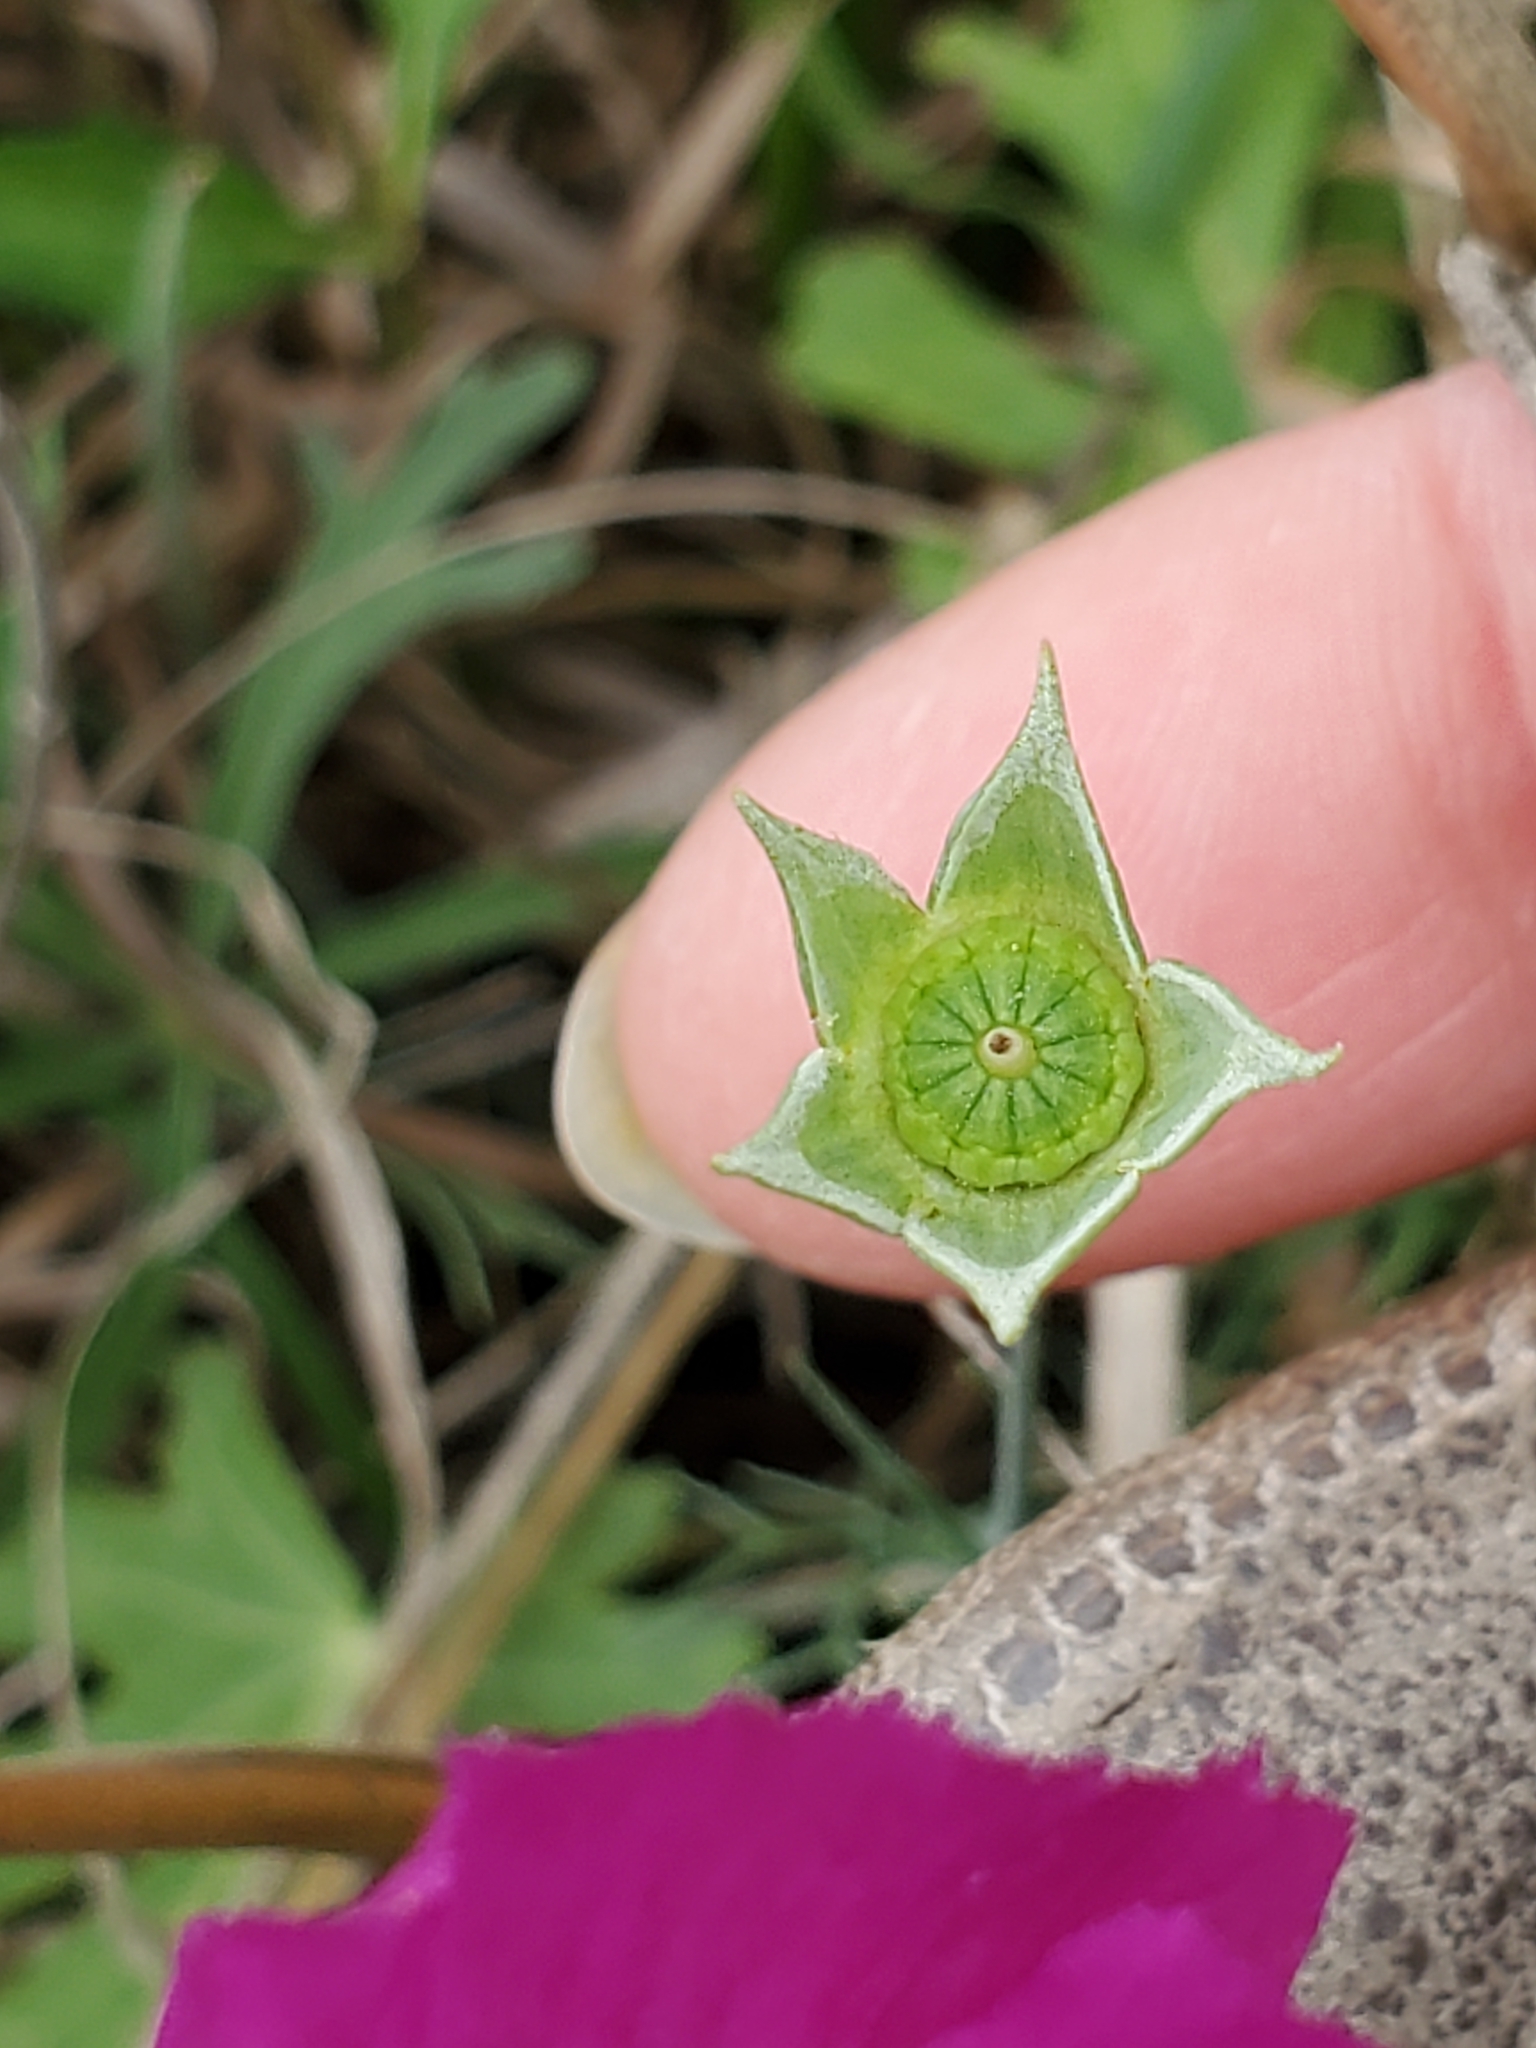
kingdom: Plantae
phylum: Tracheophyta
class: Magnoliopsida
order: Malvales
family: Malvaceae
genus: Callirhoe
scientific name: Callirhoe pedata
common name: Finger poppy-mallow
